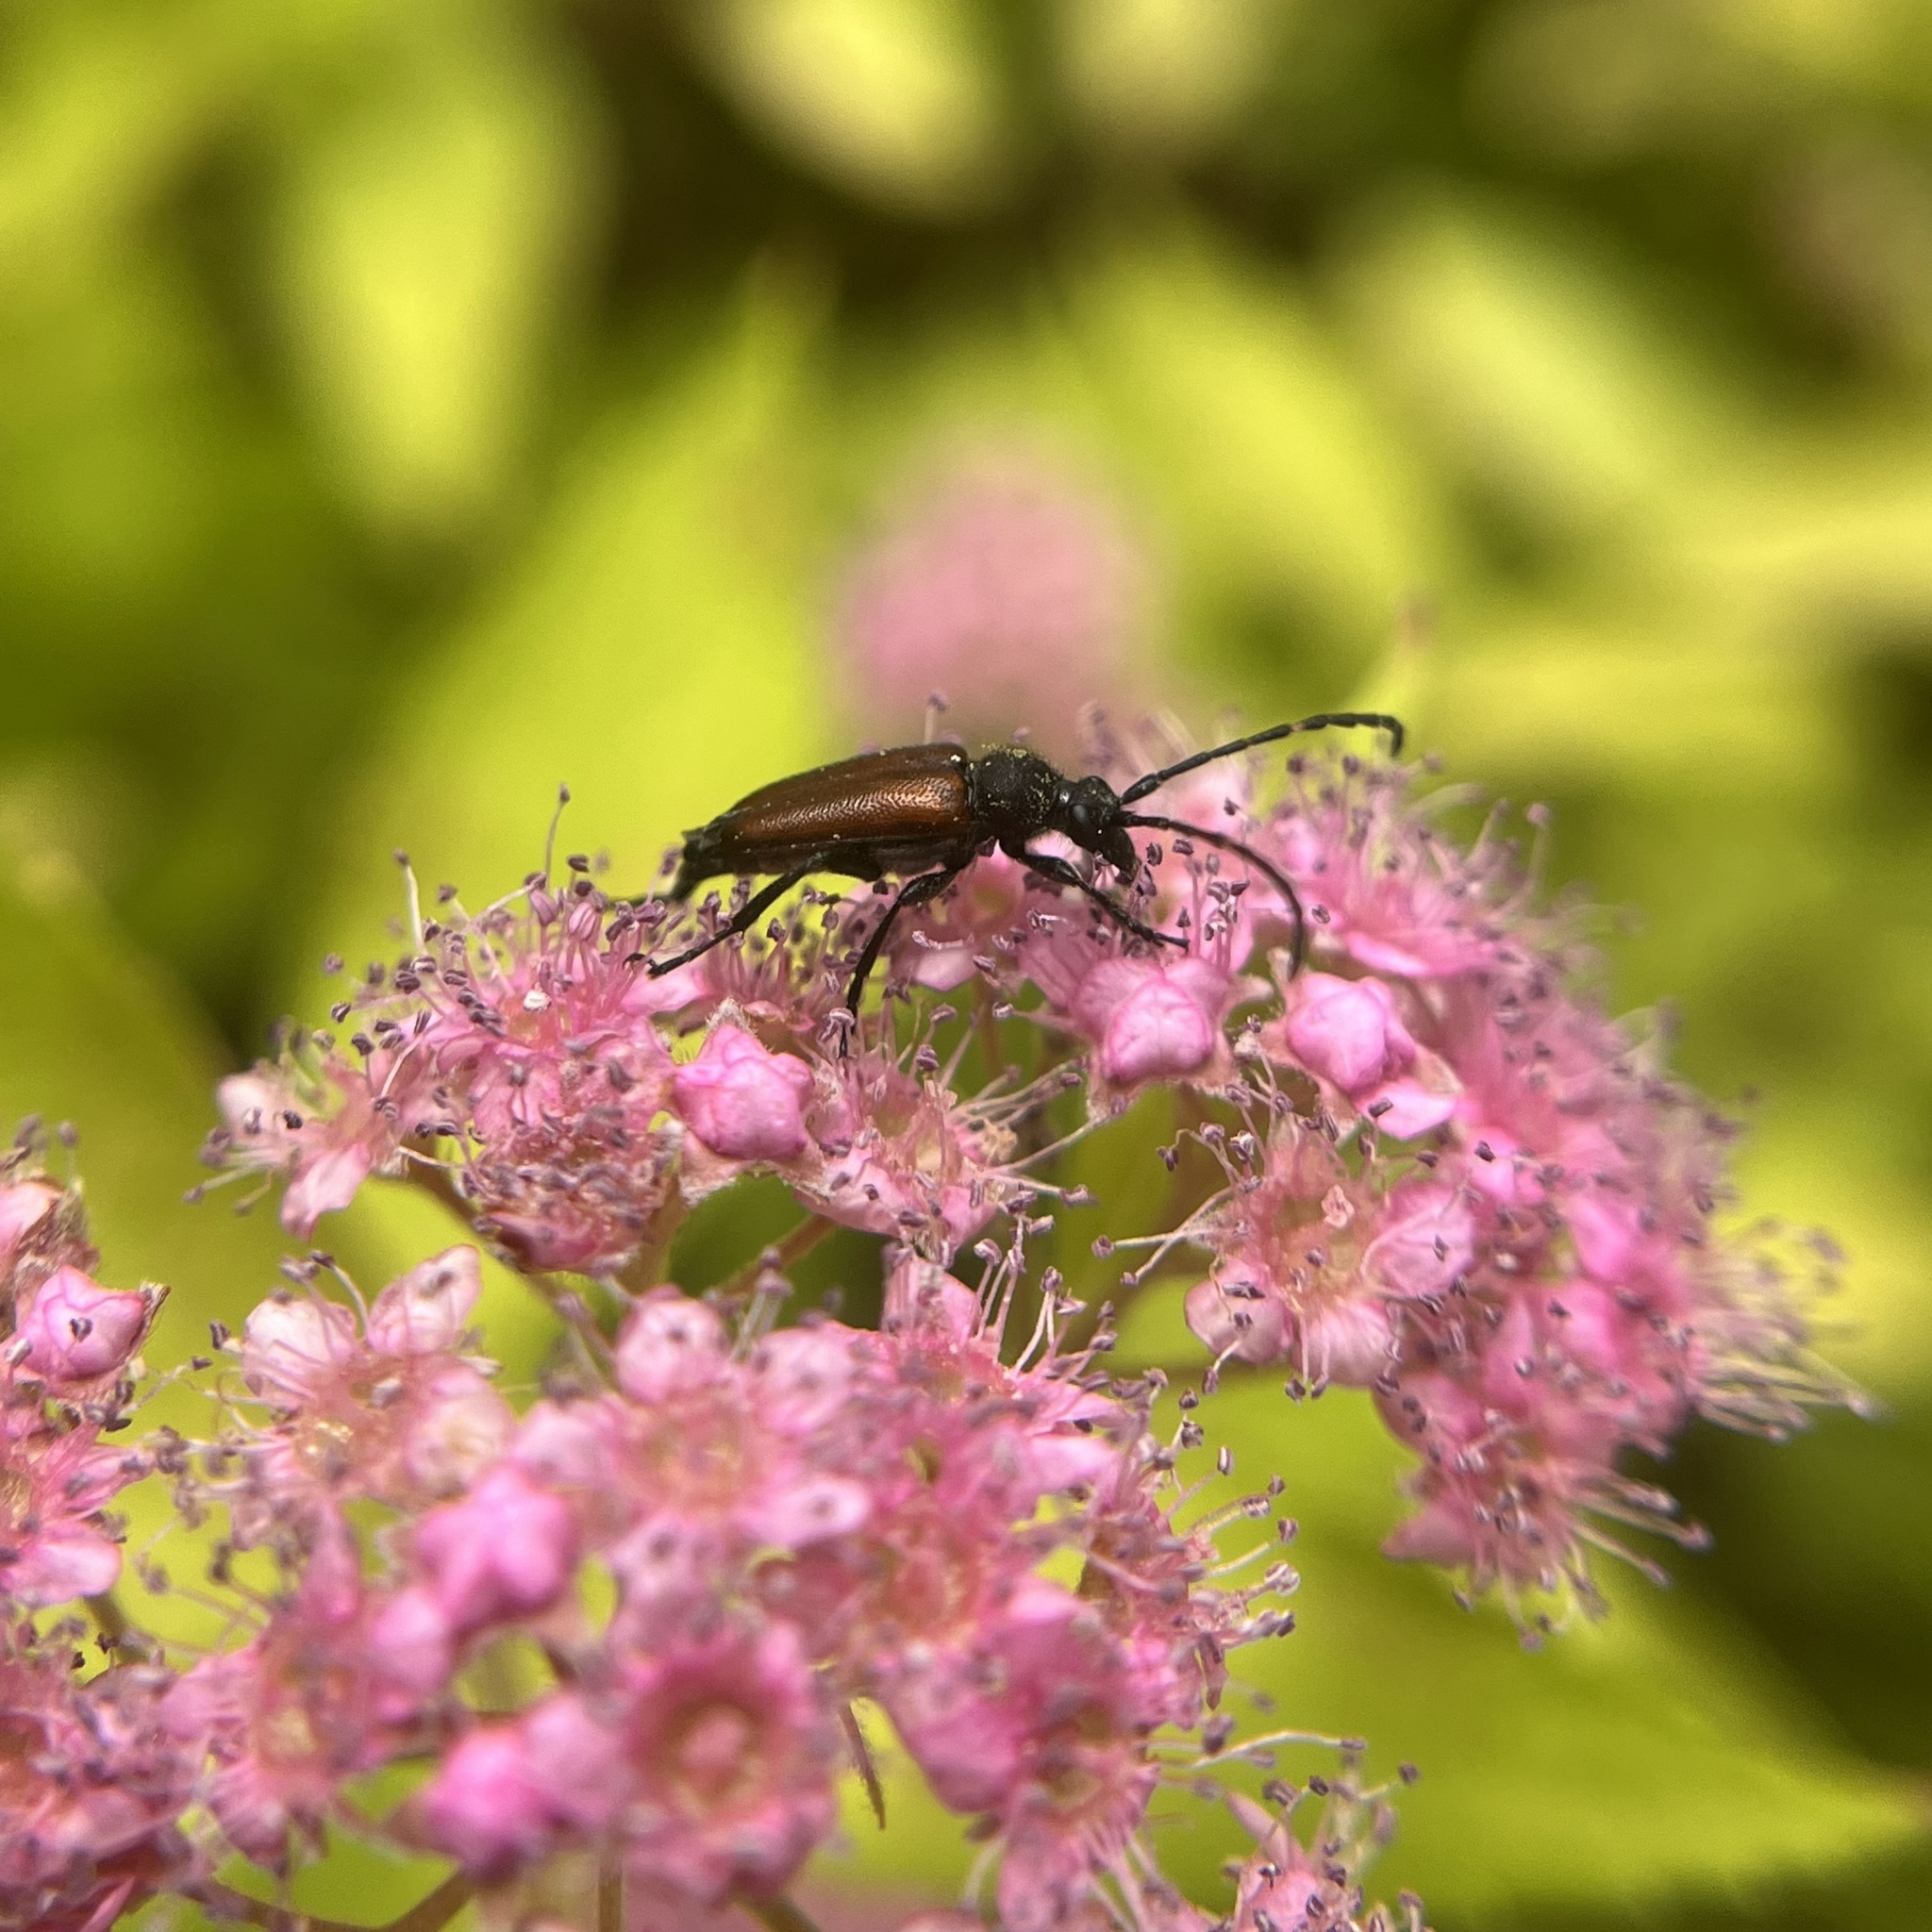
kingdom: Animalia
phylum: Arthropoda
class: Insecta
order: Coleoptera
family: Cerambycidae
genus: Paracorymbia
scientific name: Paracorymbia maculicornis
